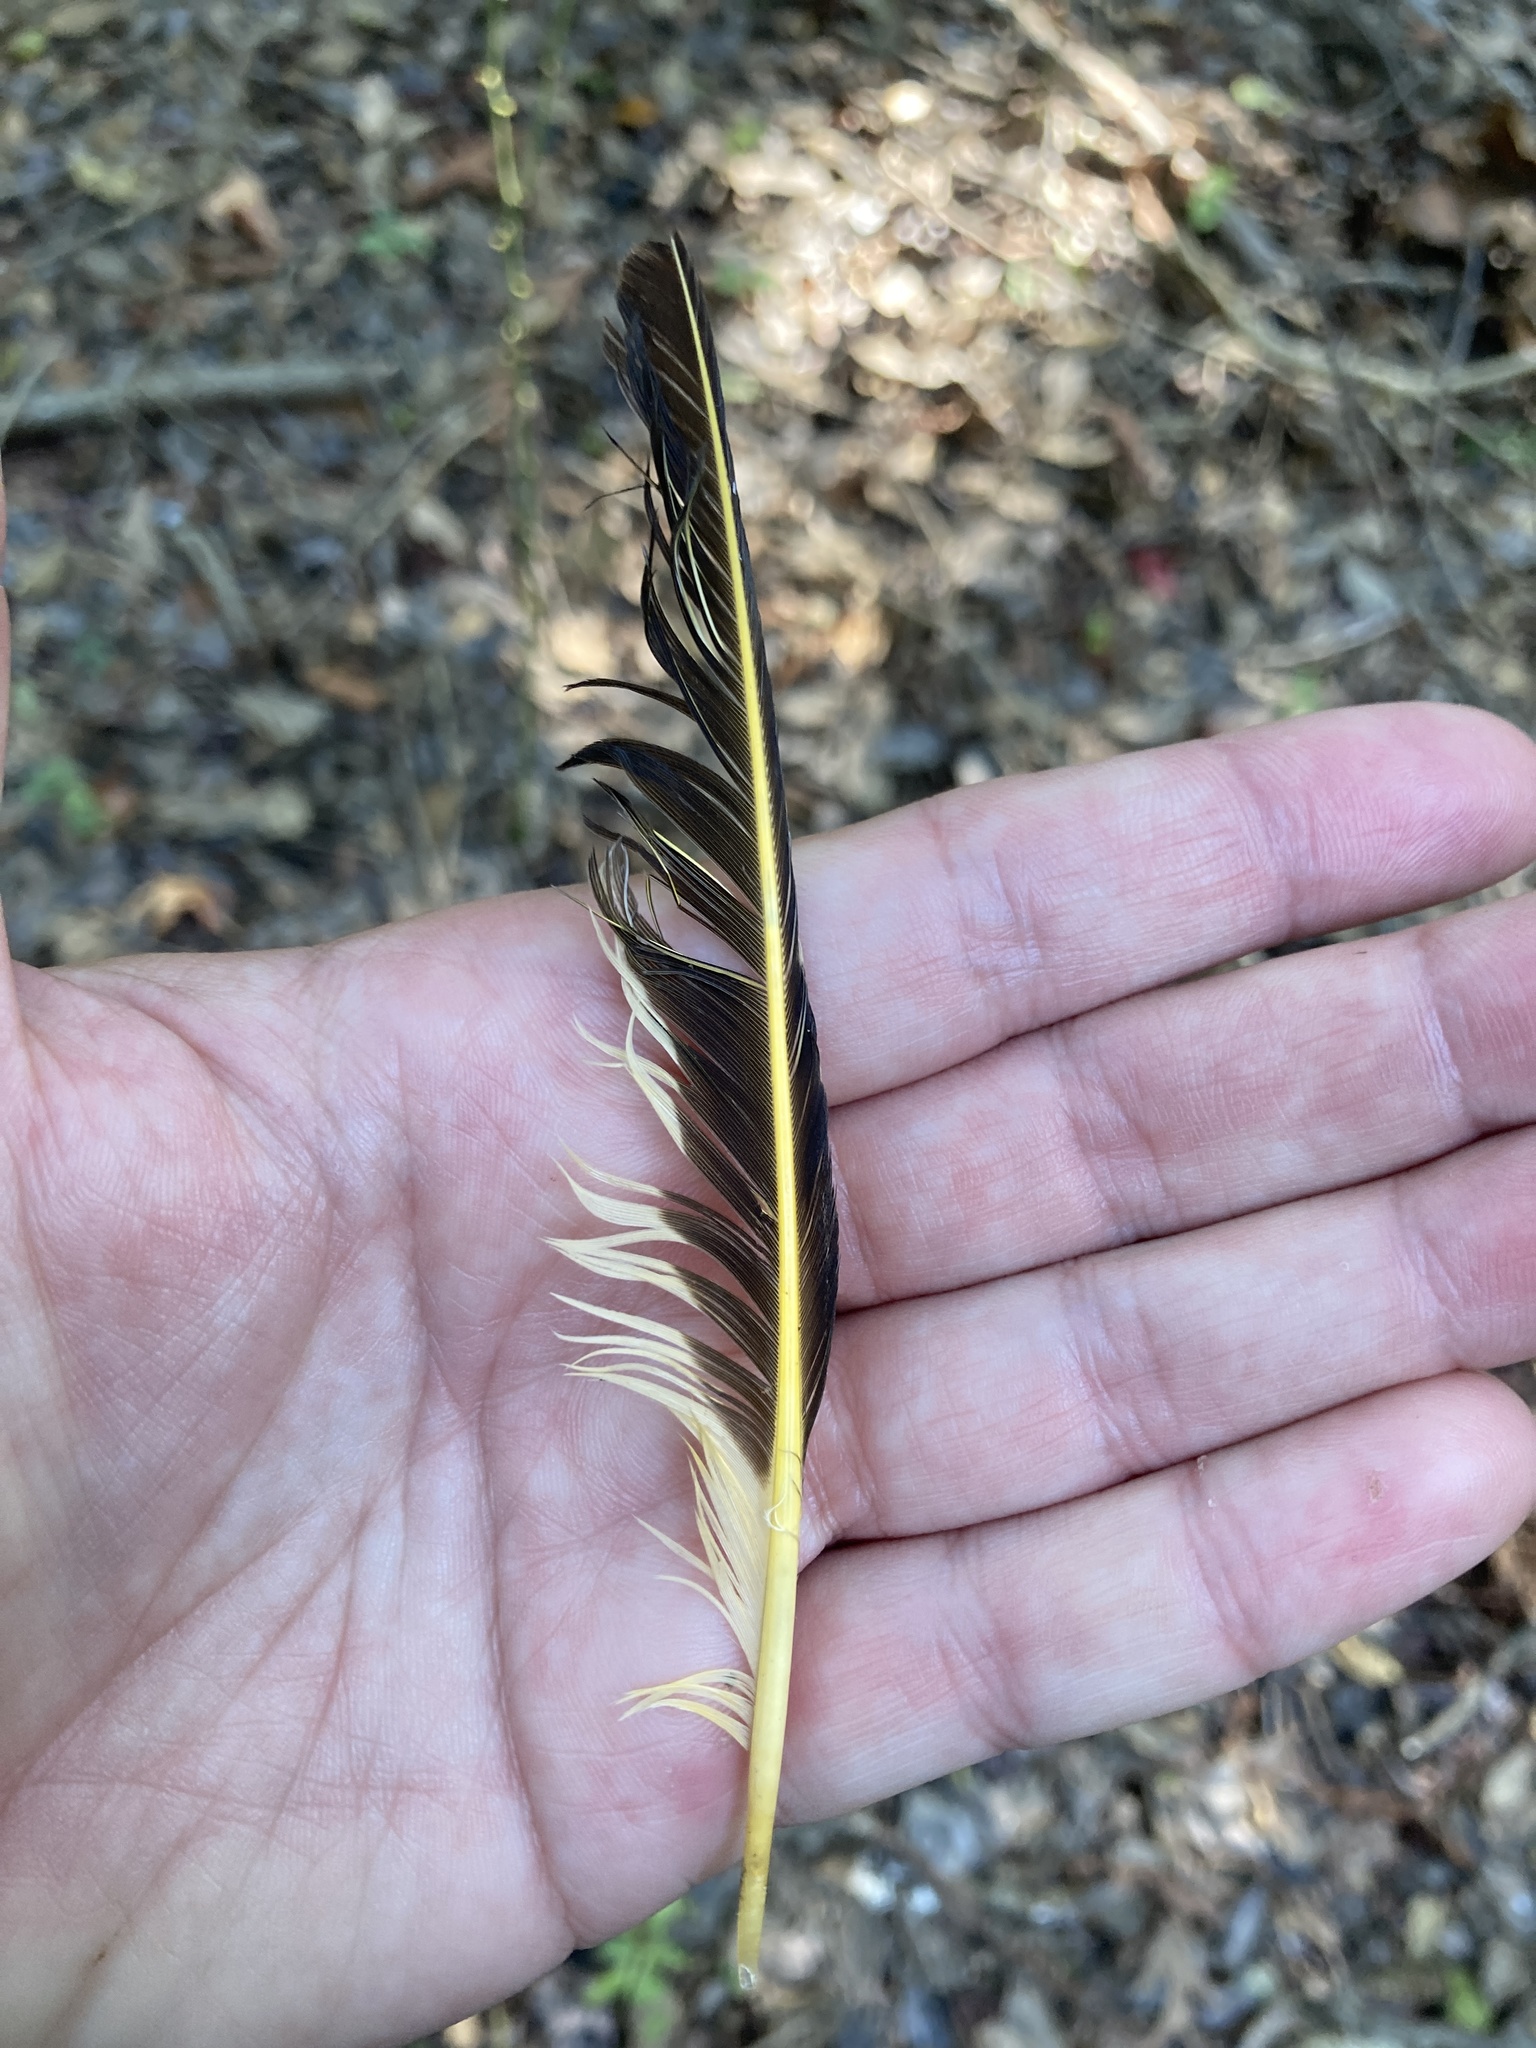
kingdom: Animalia
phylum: Chordata
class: Aves
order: Piciformes
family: Picidae
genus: Colaptes
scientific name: Colaptes auratus
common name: Northern flicker
